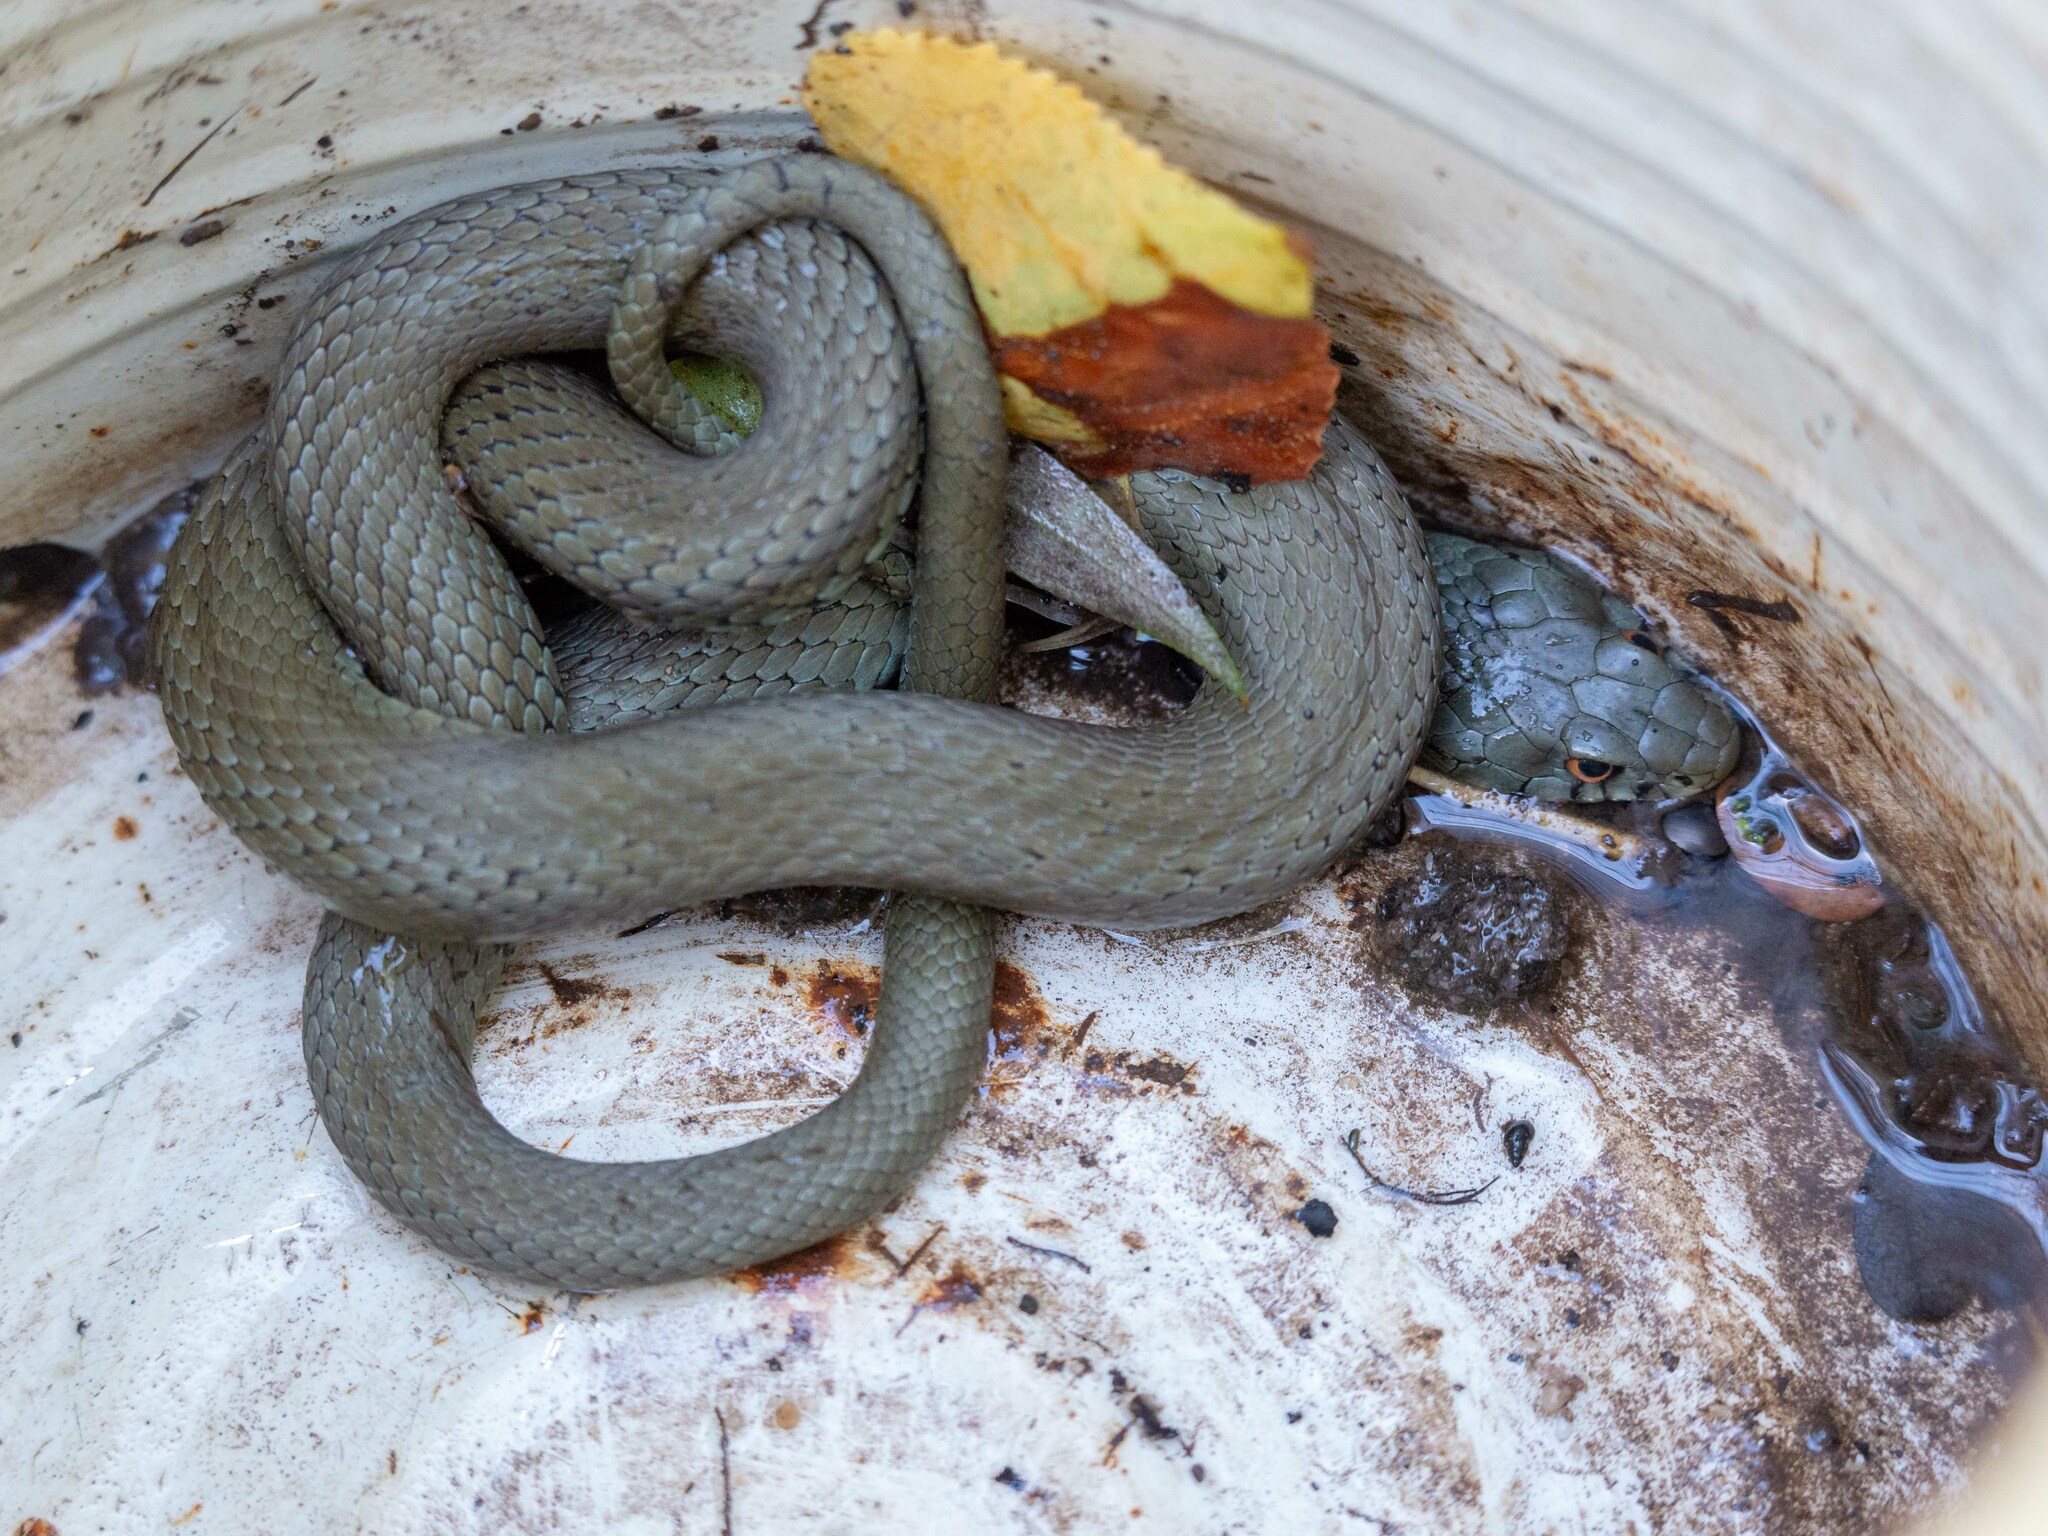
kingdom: Animalia
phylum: Chordata
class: Squamata
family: Colubridae
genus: Natrix
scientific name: Natrix astreptophora
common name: Red-eyed grass snake
